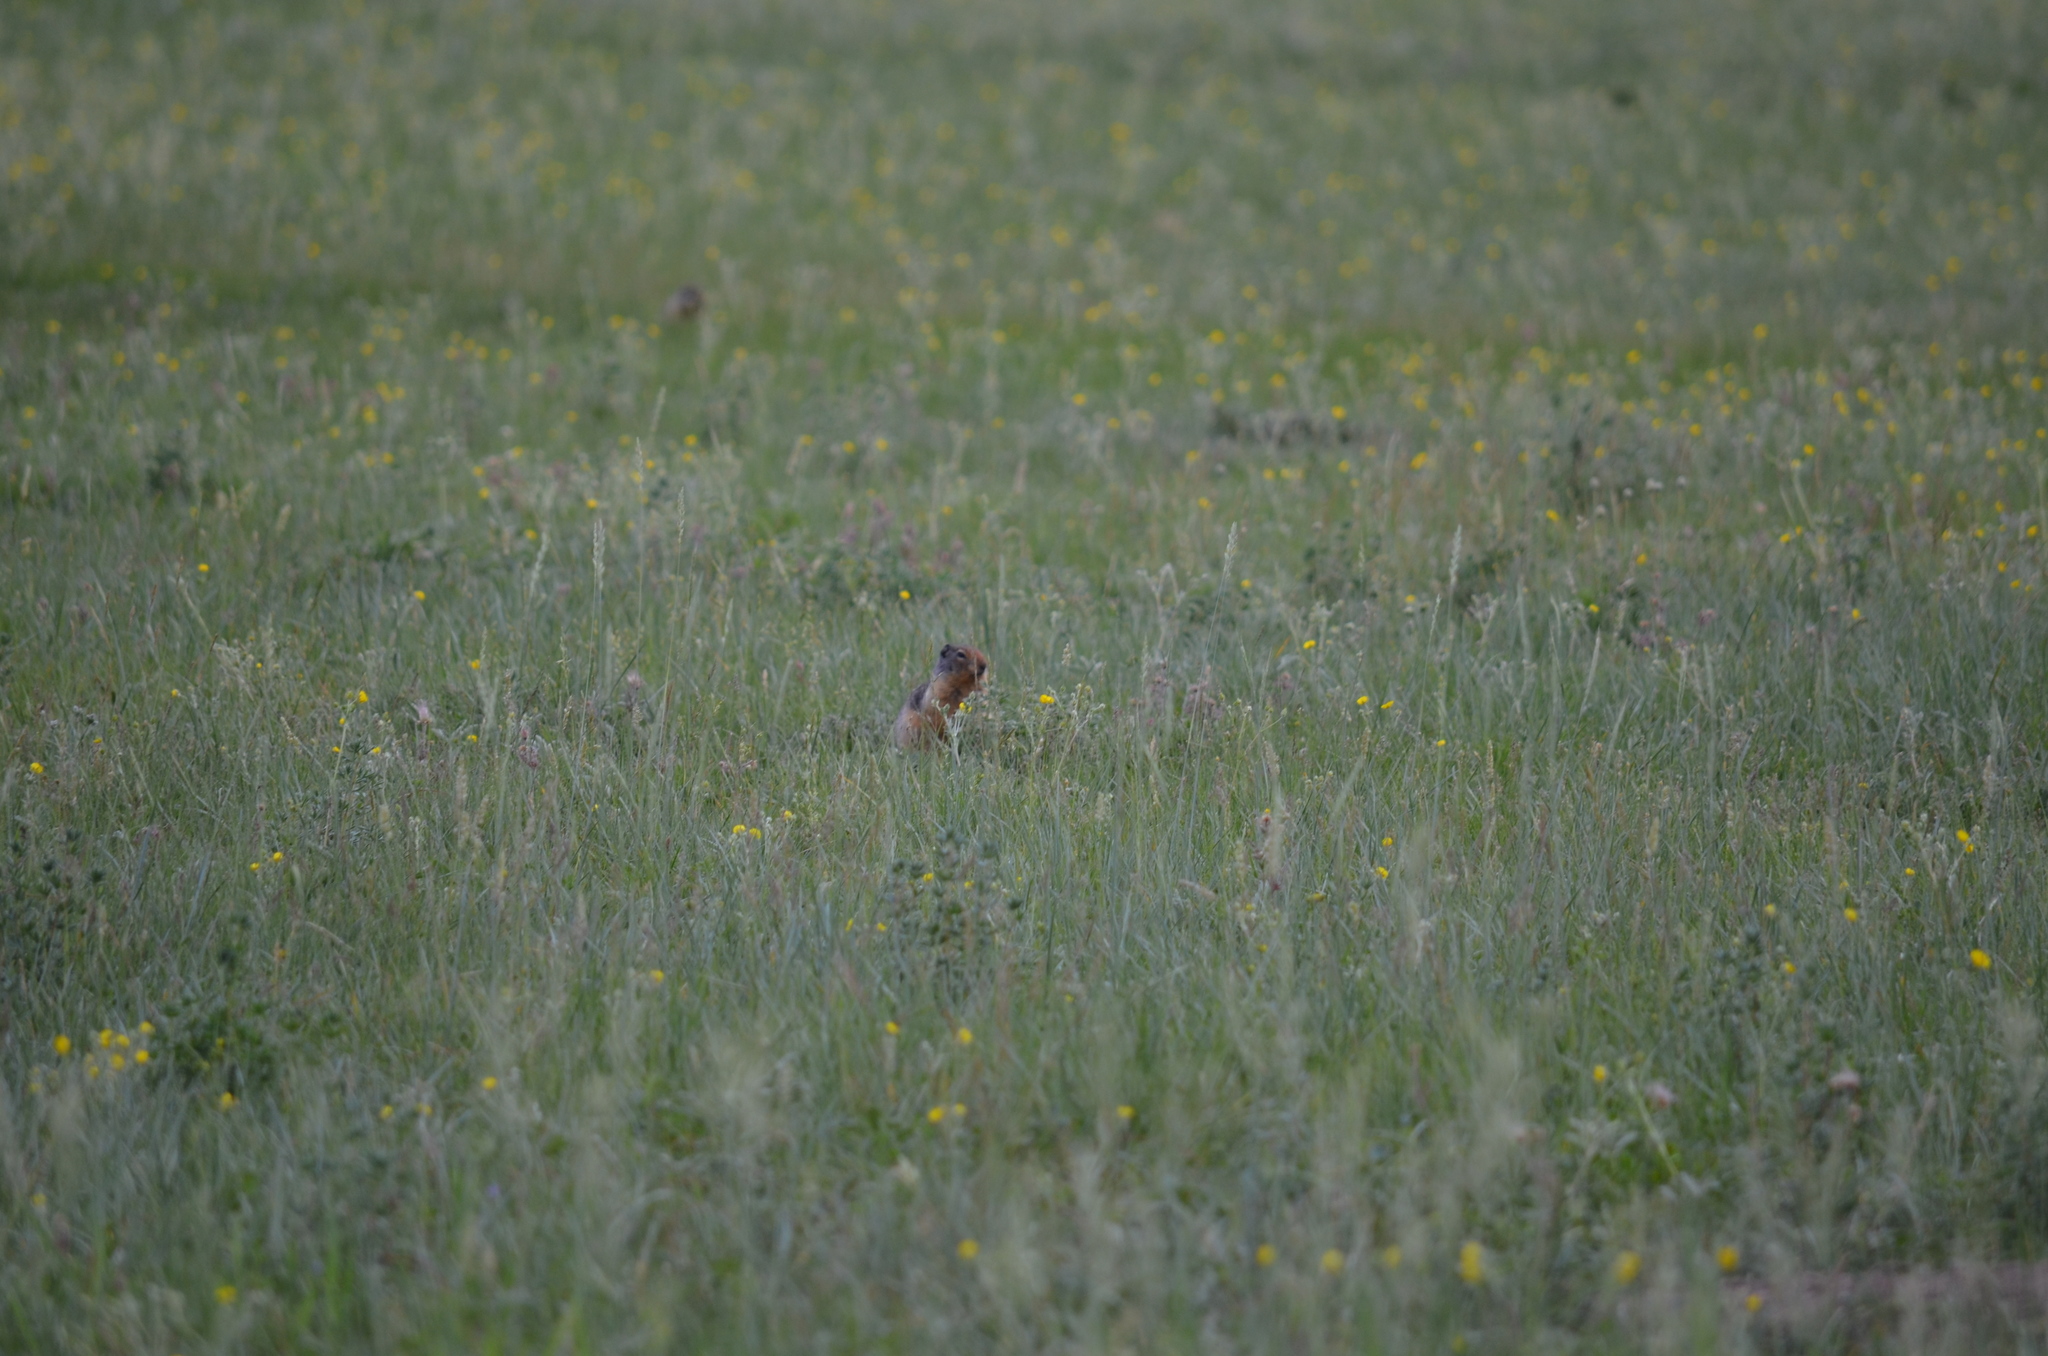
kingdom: Animalia
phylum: Chordata
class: Mammalia
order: Rodentia
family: Sciuridae
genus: Urocitellus
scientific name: Urocitellus columbianus
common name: Columbian ground squirrel
